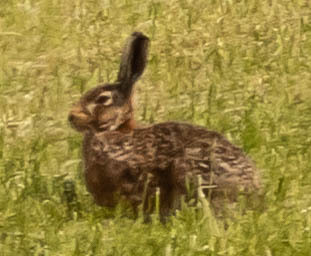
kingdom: Animalia
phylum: Chordata
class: Mammalia
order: Lagomorpha
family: Leporidae
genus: Lepus
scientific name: Lepus europaeus
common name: European hare
